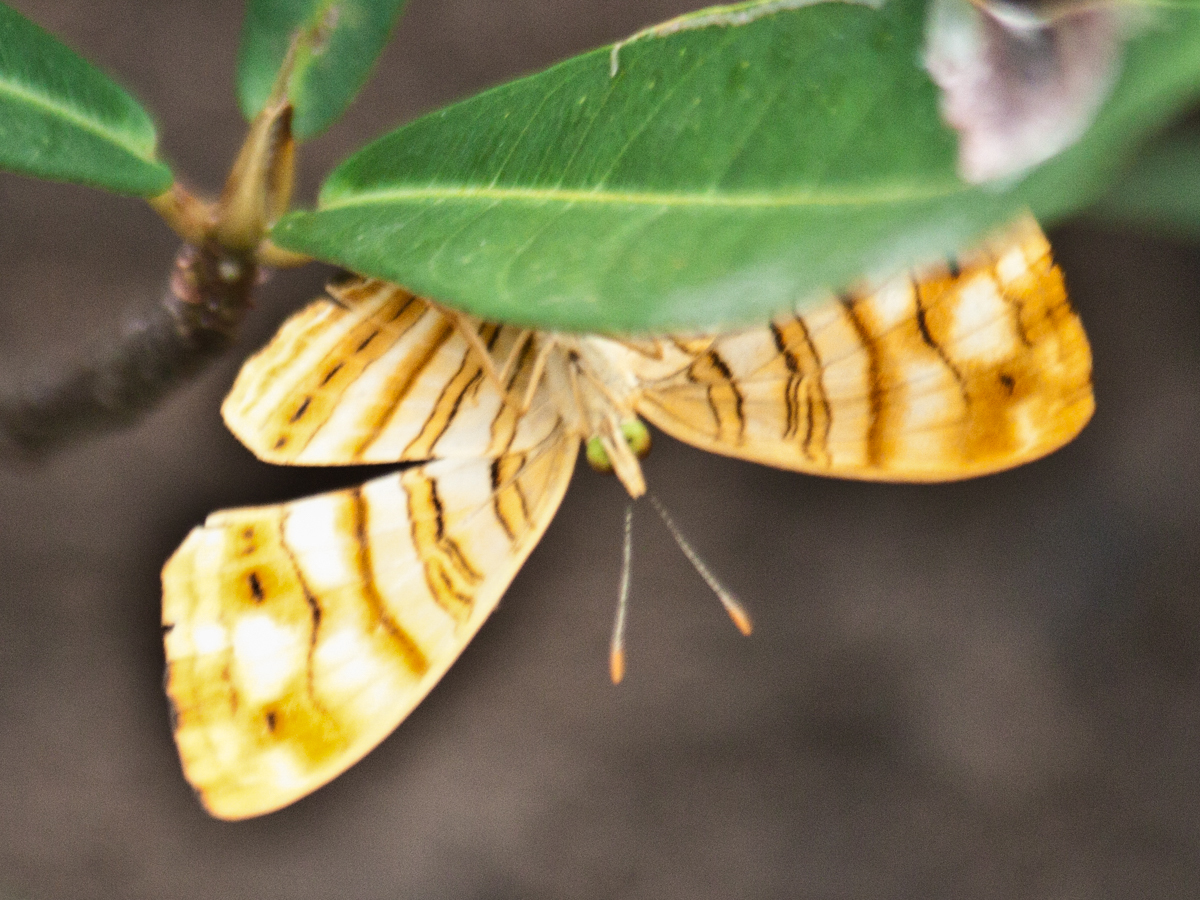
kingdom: Animalia
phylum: Arthropoda
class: Insecta
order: Lepidoptera
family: Nymphalidae
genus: Chersonesia
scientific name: Chersonesia intermedia
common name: Intermediate maplet
